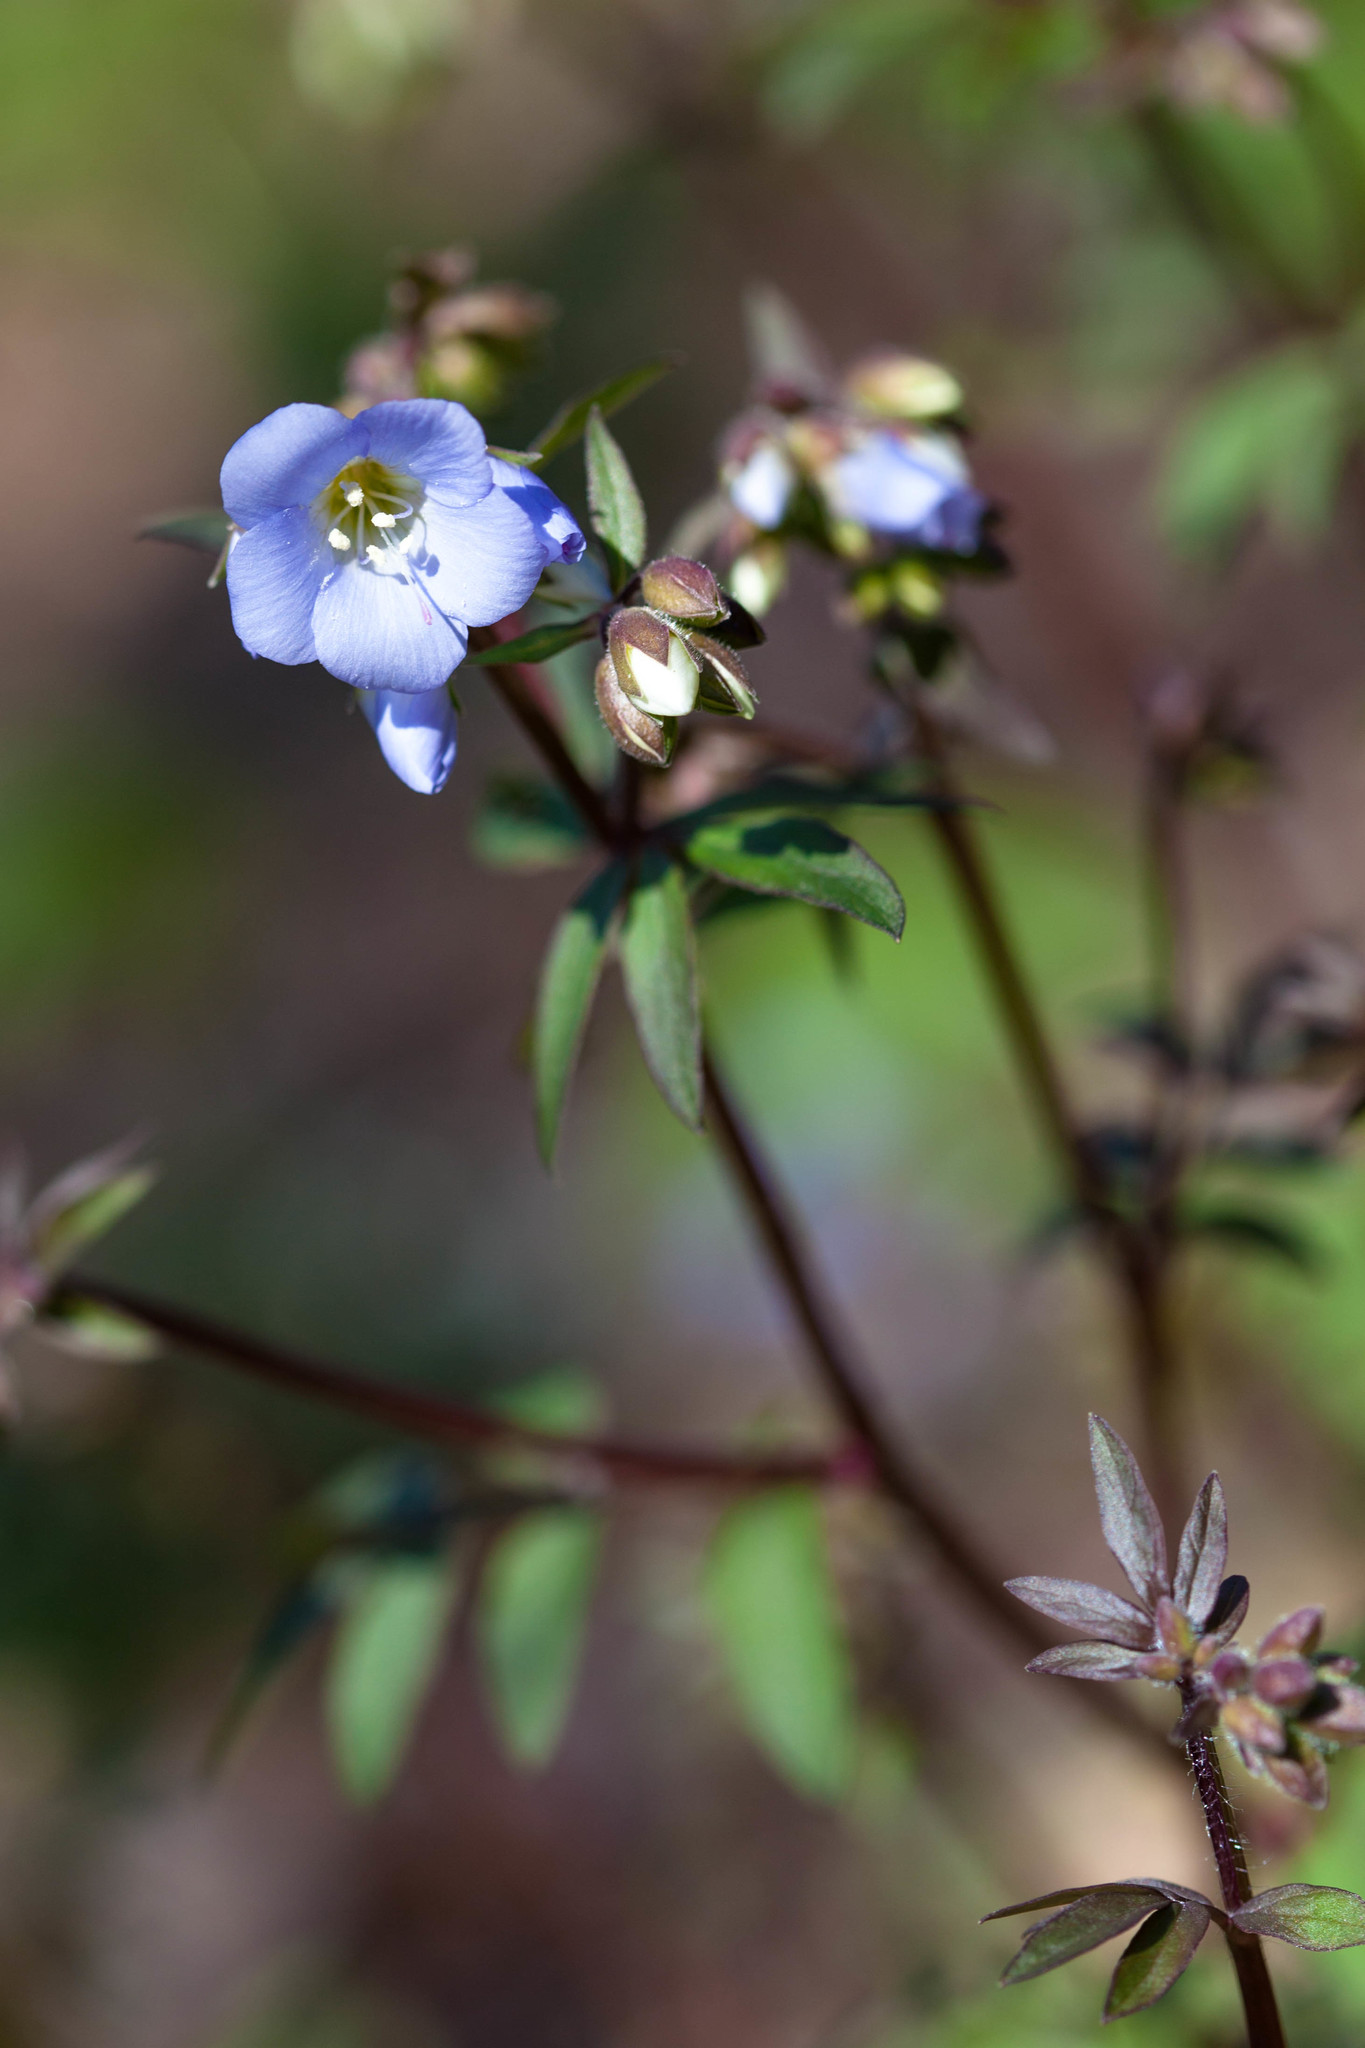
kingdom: Plantae
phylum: Tracheophyta
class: Magnoliopsida
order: Ericales
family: Polemoniaceae
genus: Polemonium
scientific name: Polemonium reptans
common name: Creeping jacob's-ladder
